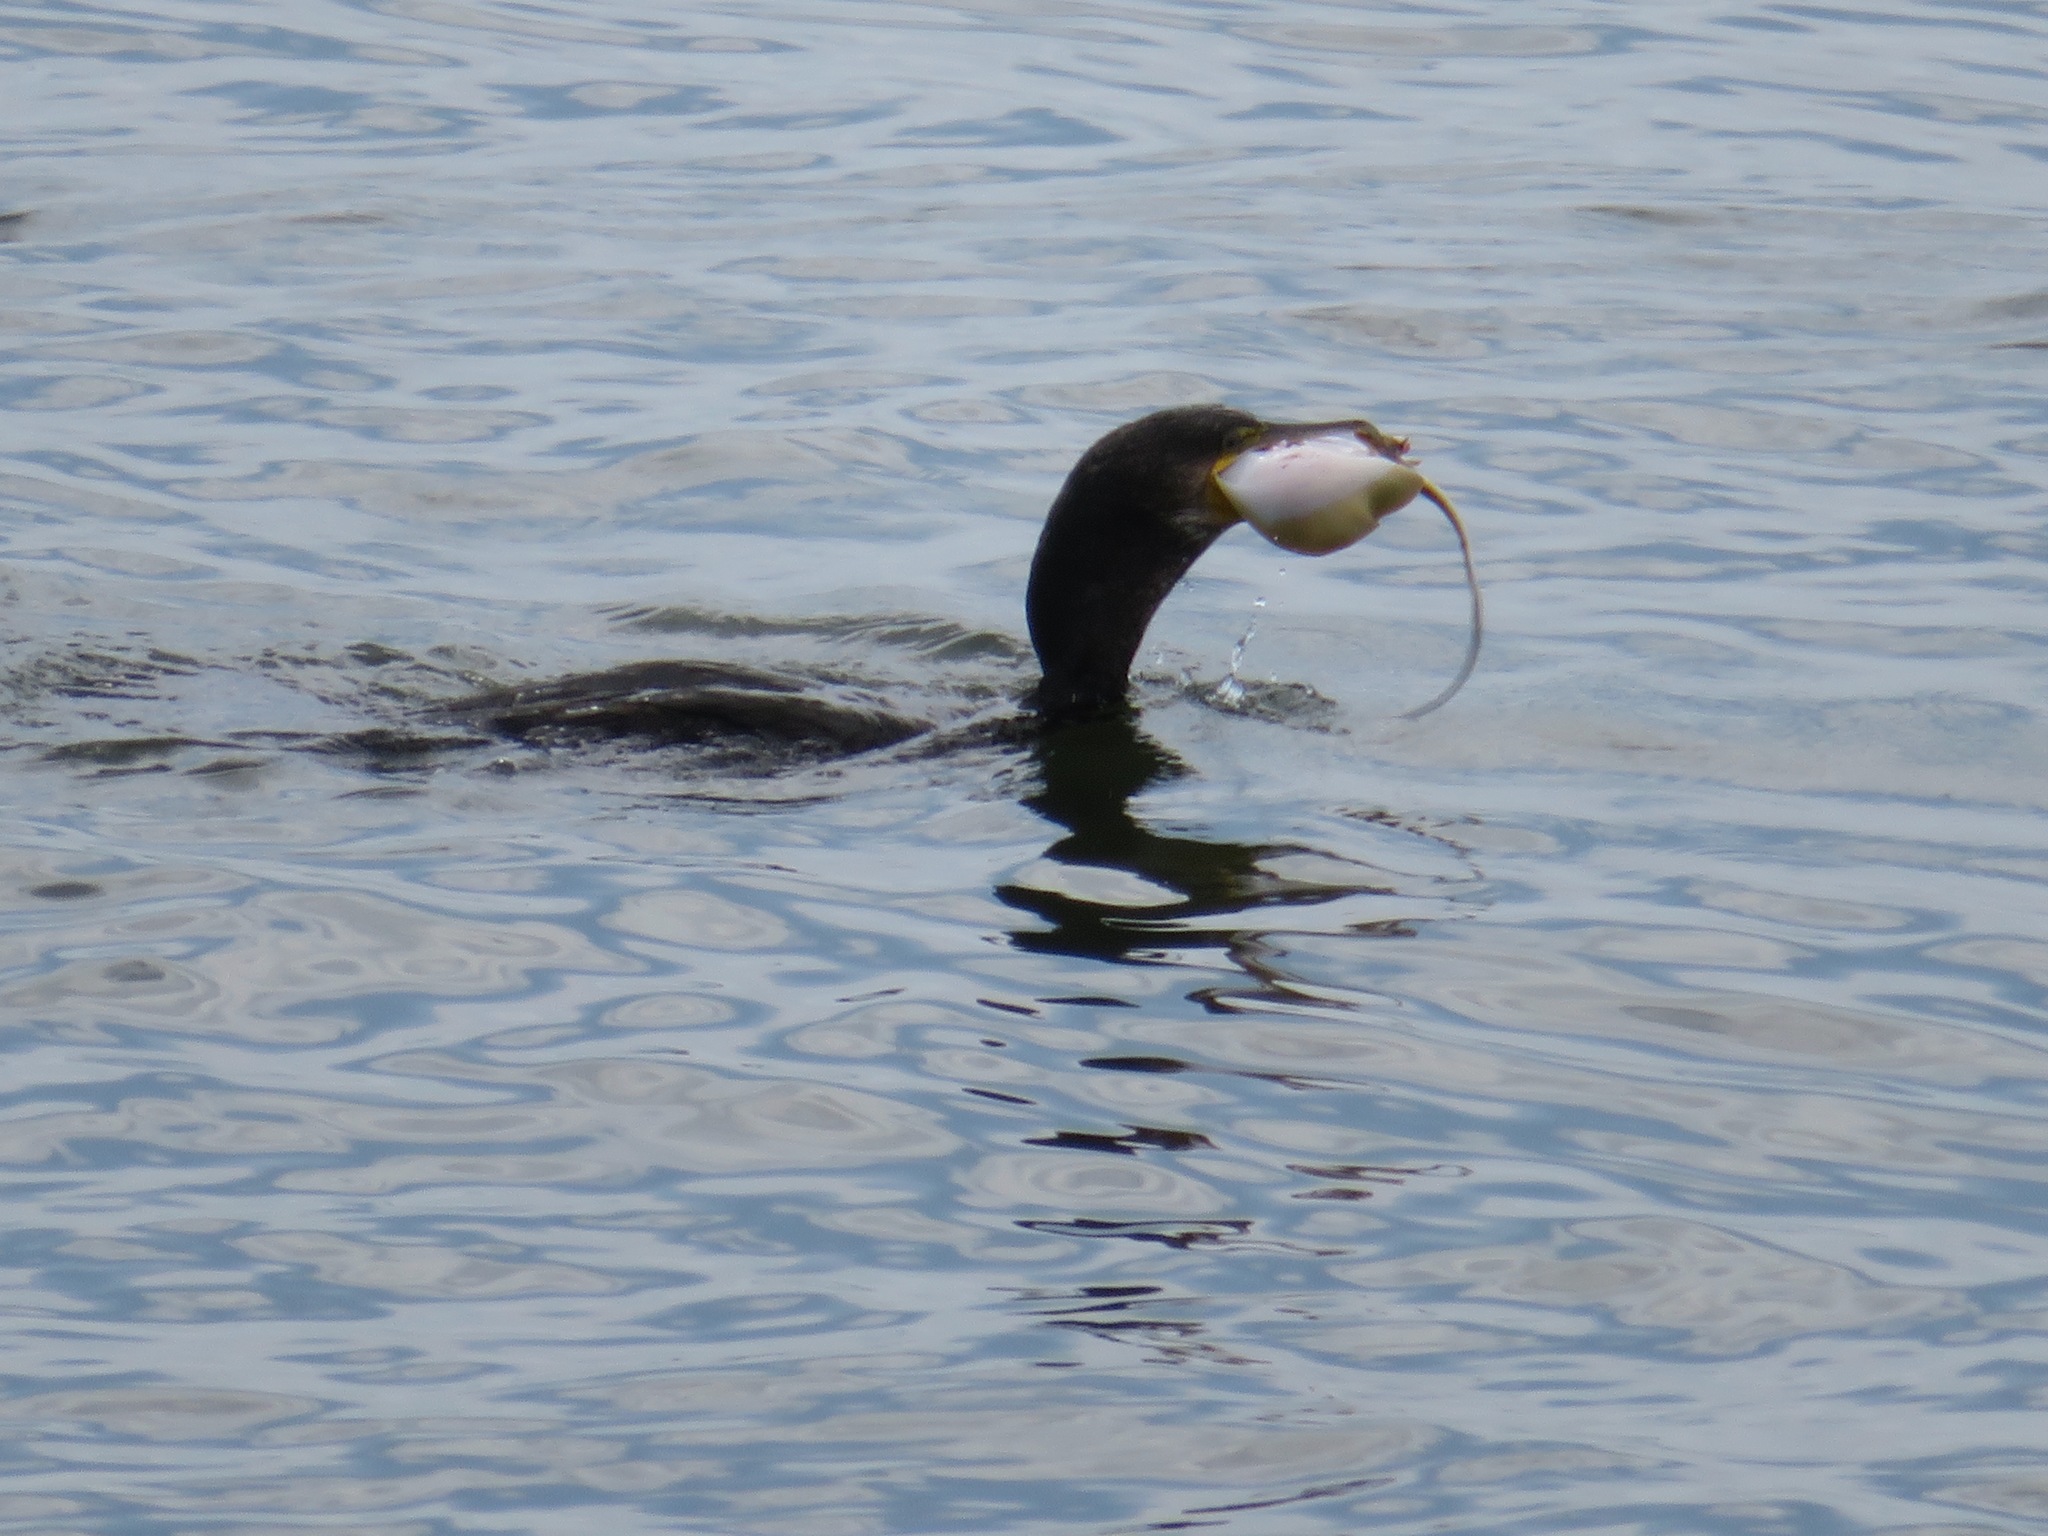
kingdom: Animalia
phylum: Chordata
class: Aves
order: Suliformes
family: Phalacrocoracidae
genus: Phalacrocorax
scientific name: Phalacrocorax carbo
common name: Great cormorant
